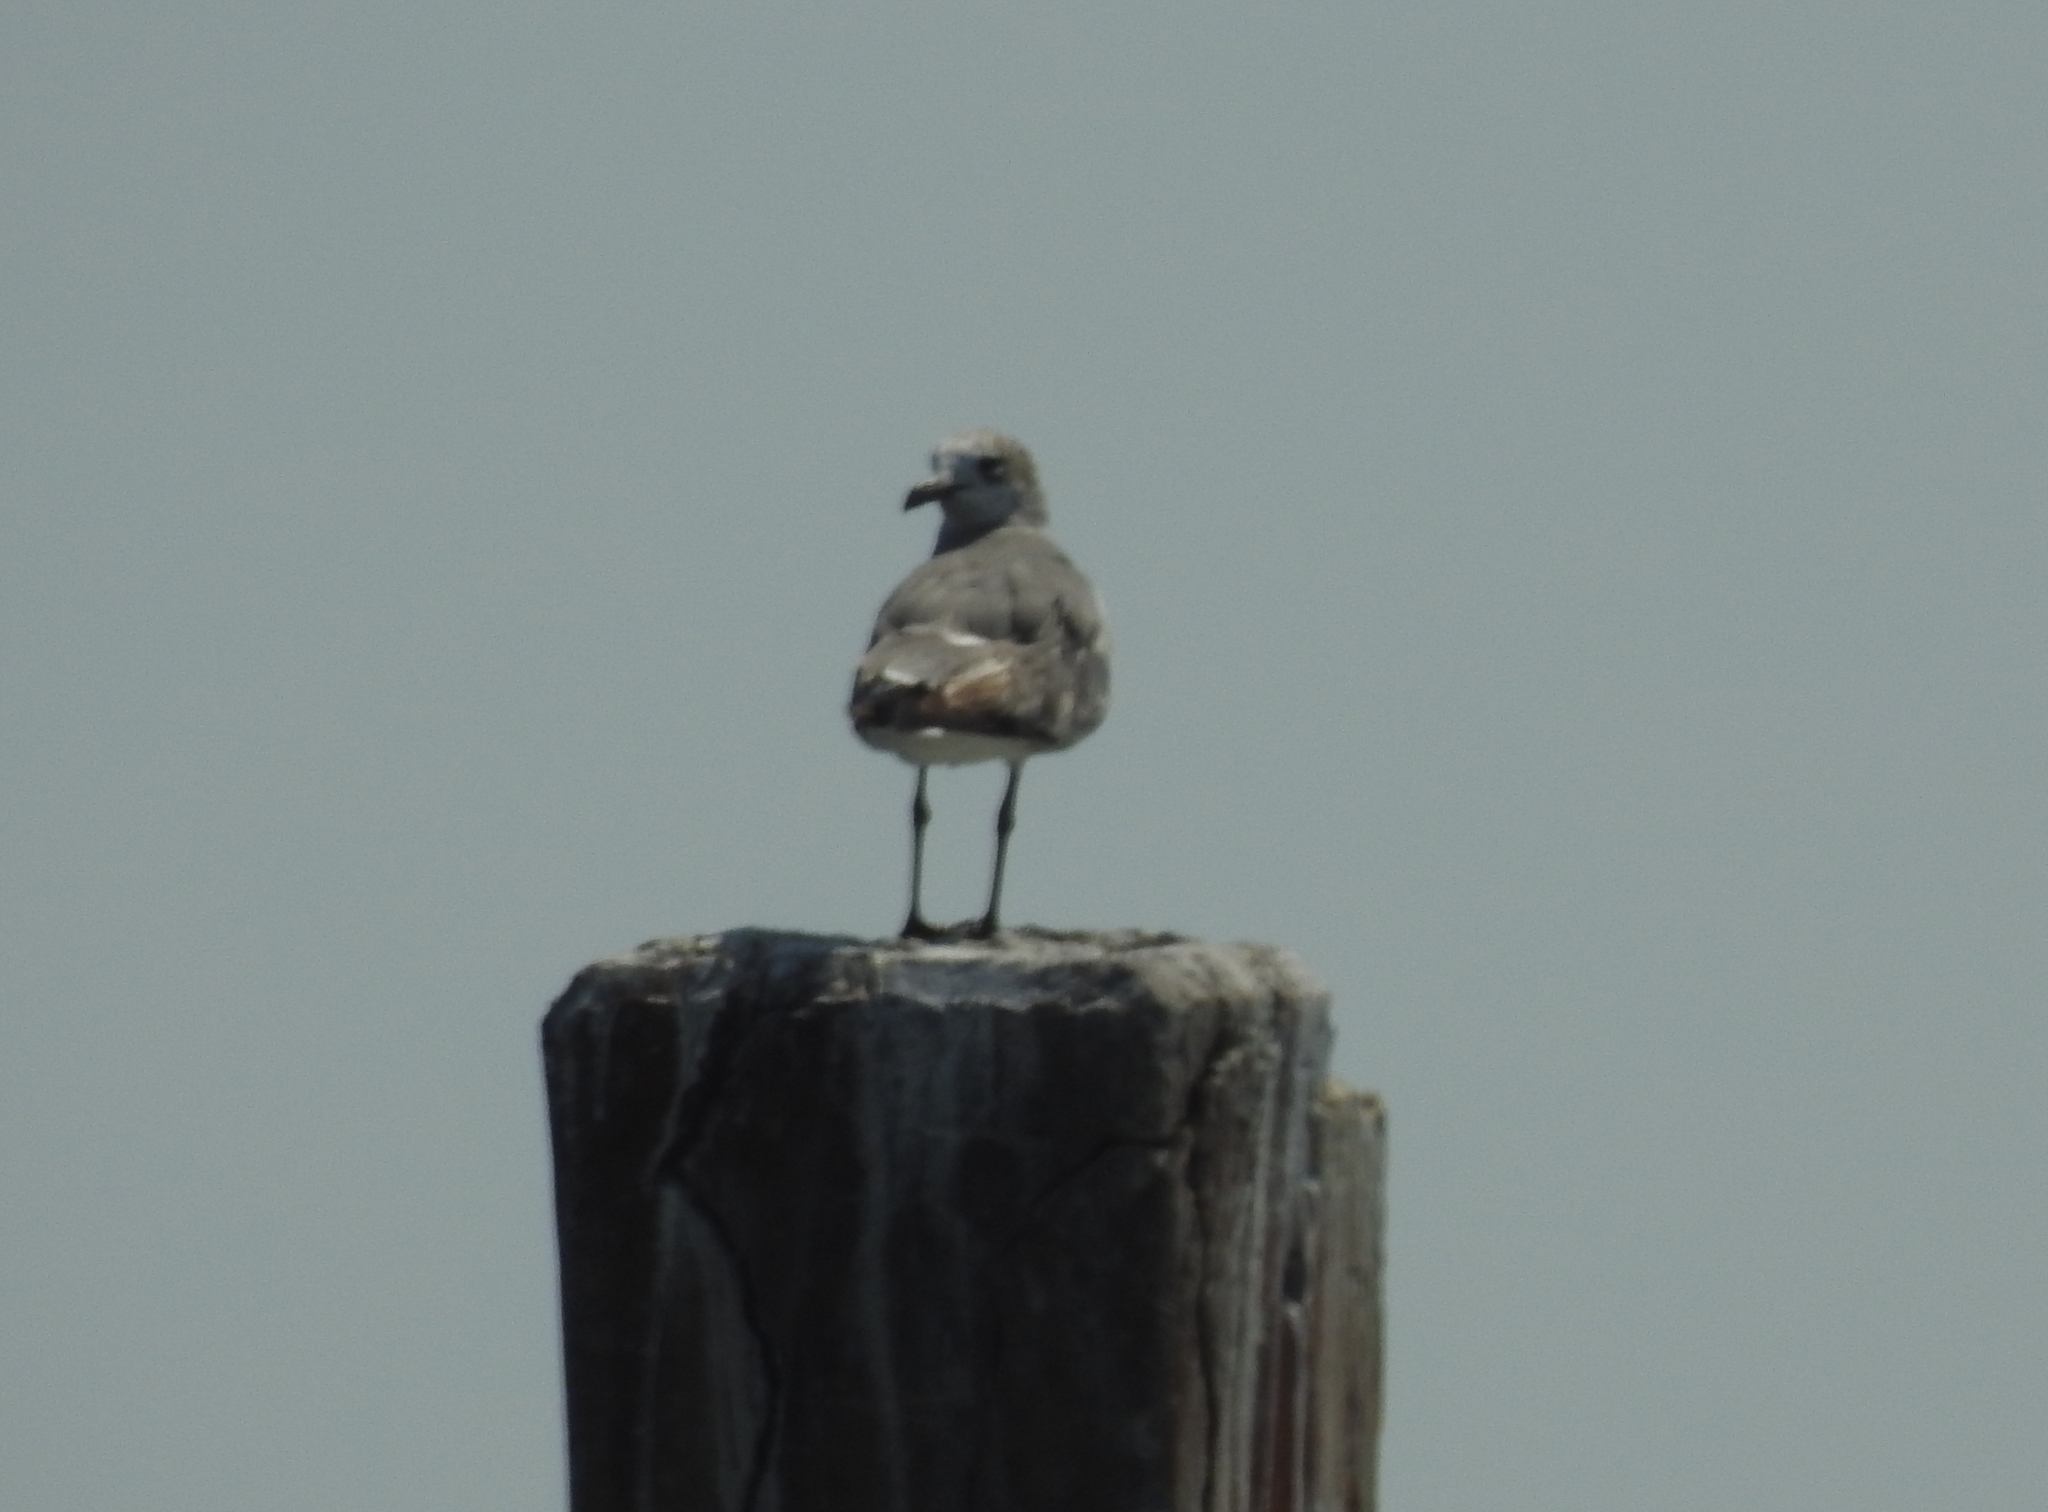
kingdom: Animalia
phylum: Chordata
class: Aves
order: Charadriiformes
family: Laridae
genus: Leucophaeus
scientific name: Leucophaeus atricilla
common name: Laughing gull
